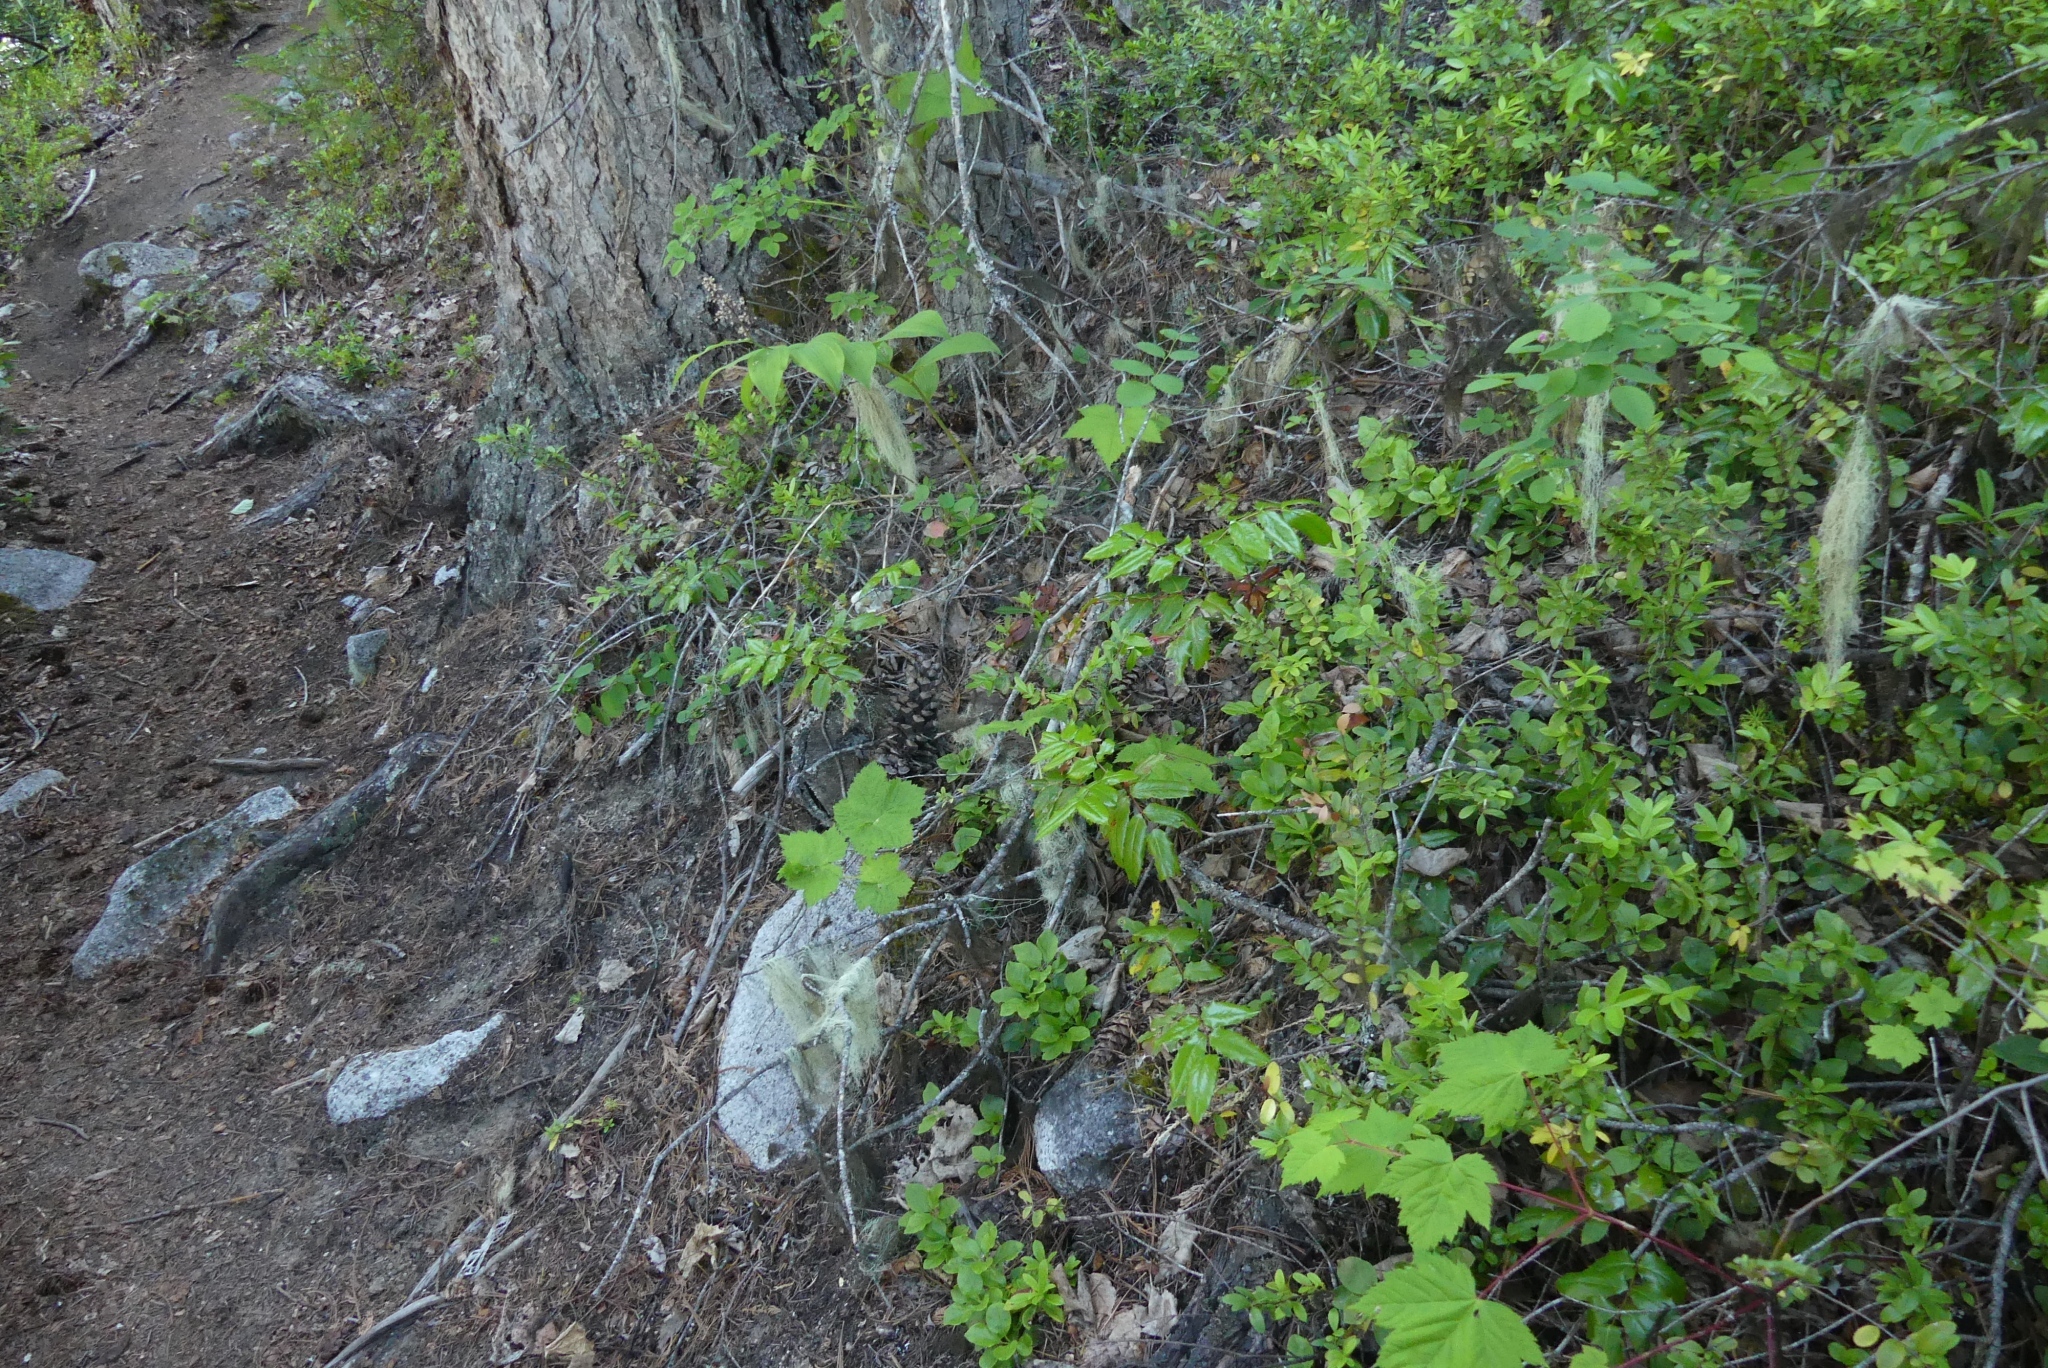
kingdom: Plantae
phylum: Tracheophyta
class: Magnoliopsida
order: Ranunculales
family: Berberidaceae
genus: Mahonia
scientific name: Mahonia aquifolium
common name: Oregon-grape
